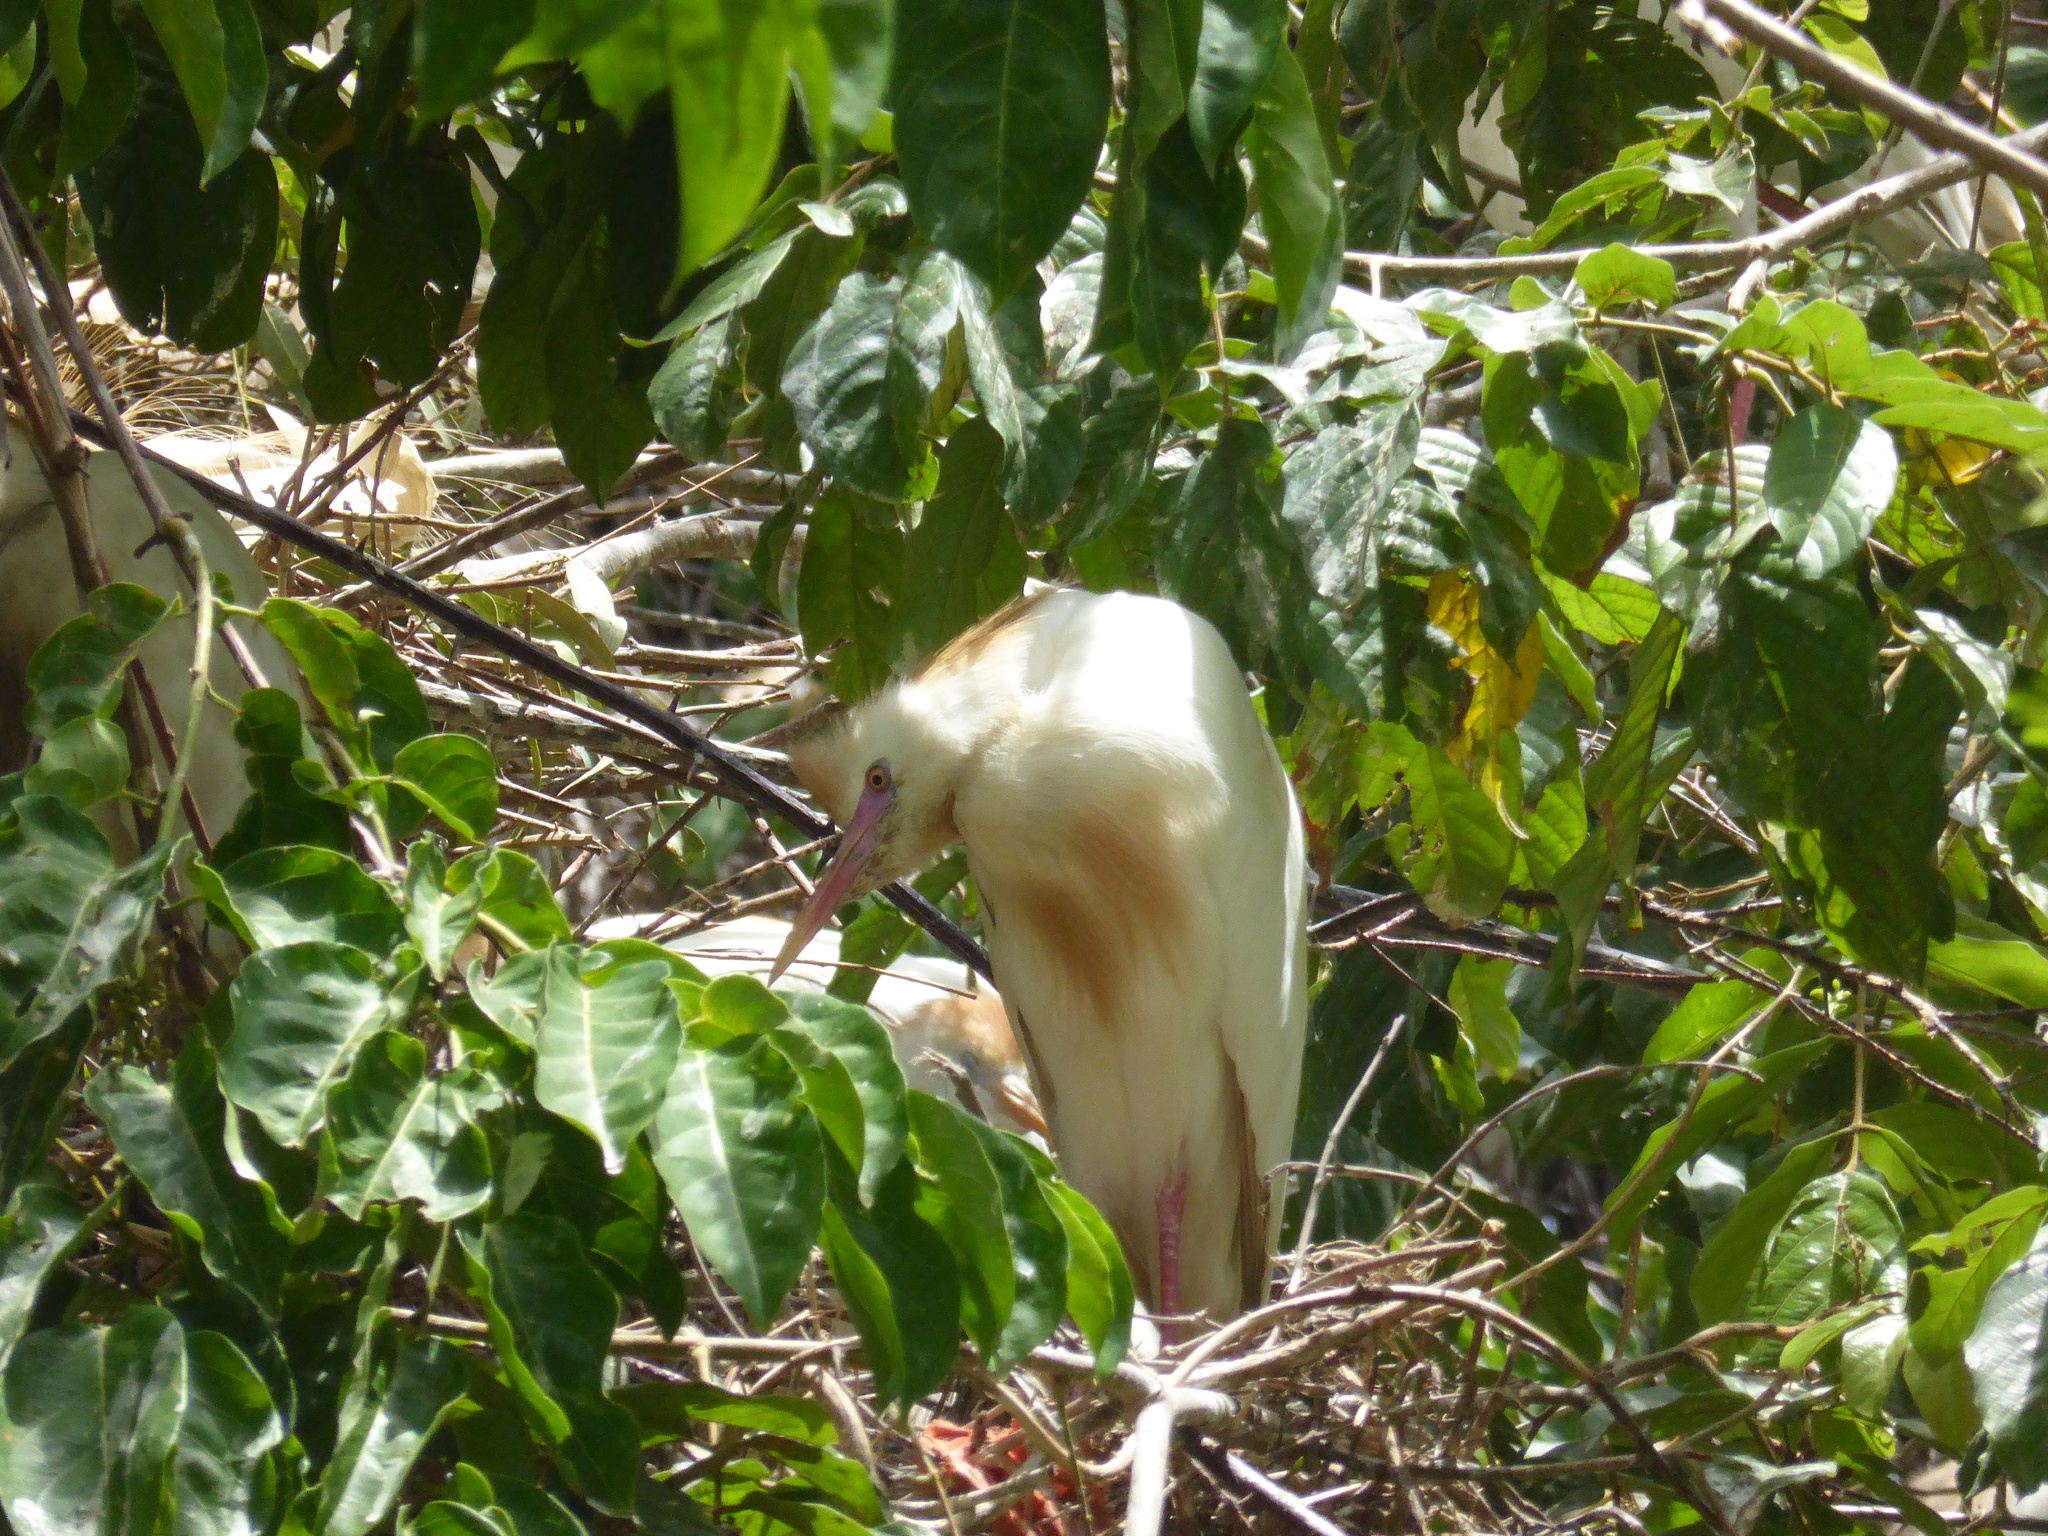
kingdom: Animalia
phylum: Chordata
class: Aves
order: Pelecaniformes
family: Ardeidae
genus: Bubulcus
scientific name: Bubulcus ibis
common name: Cattle egret
